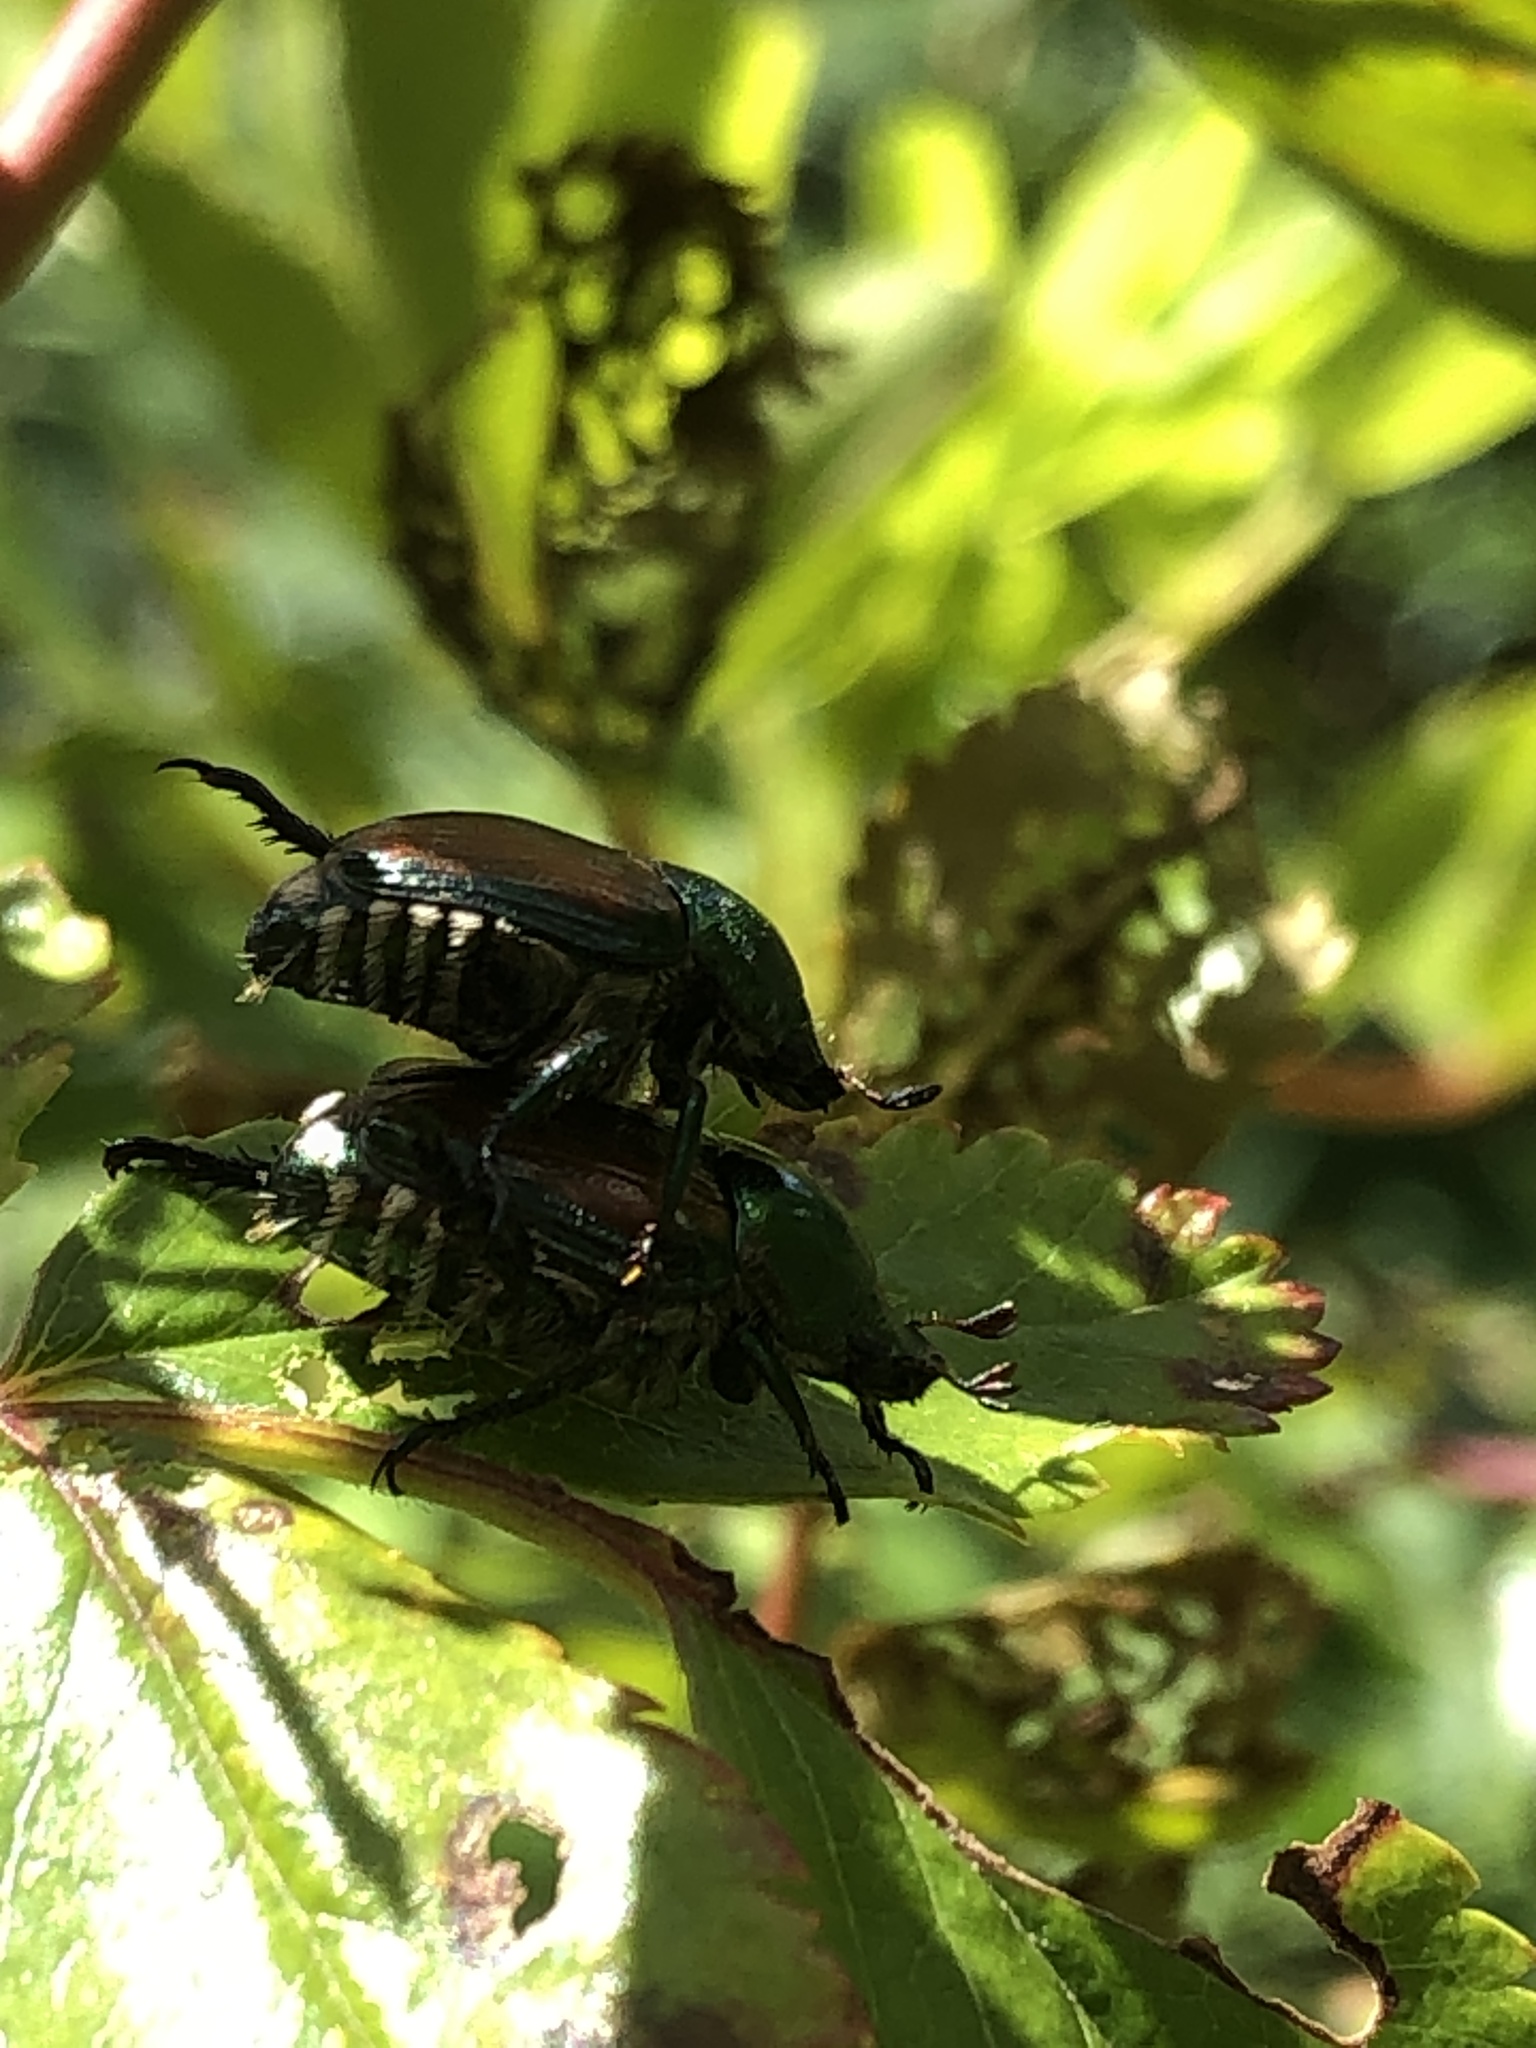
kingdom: Animalia
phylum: Arthropoda
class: Insecta
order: Coleoptera
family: Scarabaeidae
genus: Popillia
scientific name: Popillia japonica
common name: Japanese beetle
